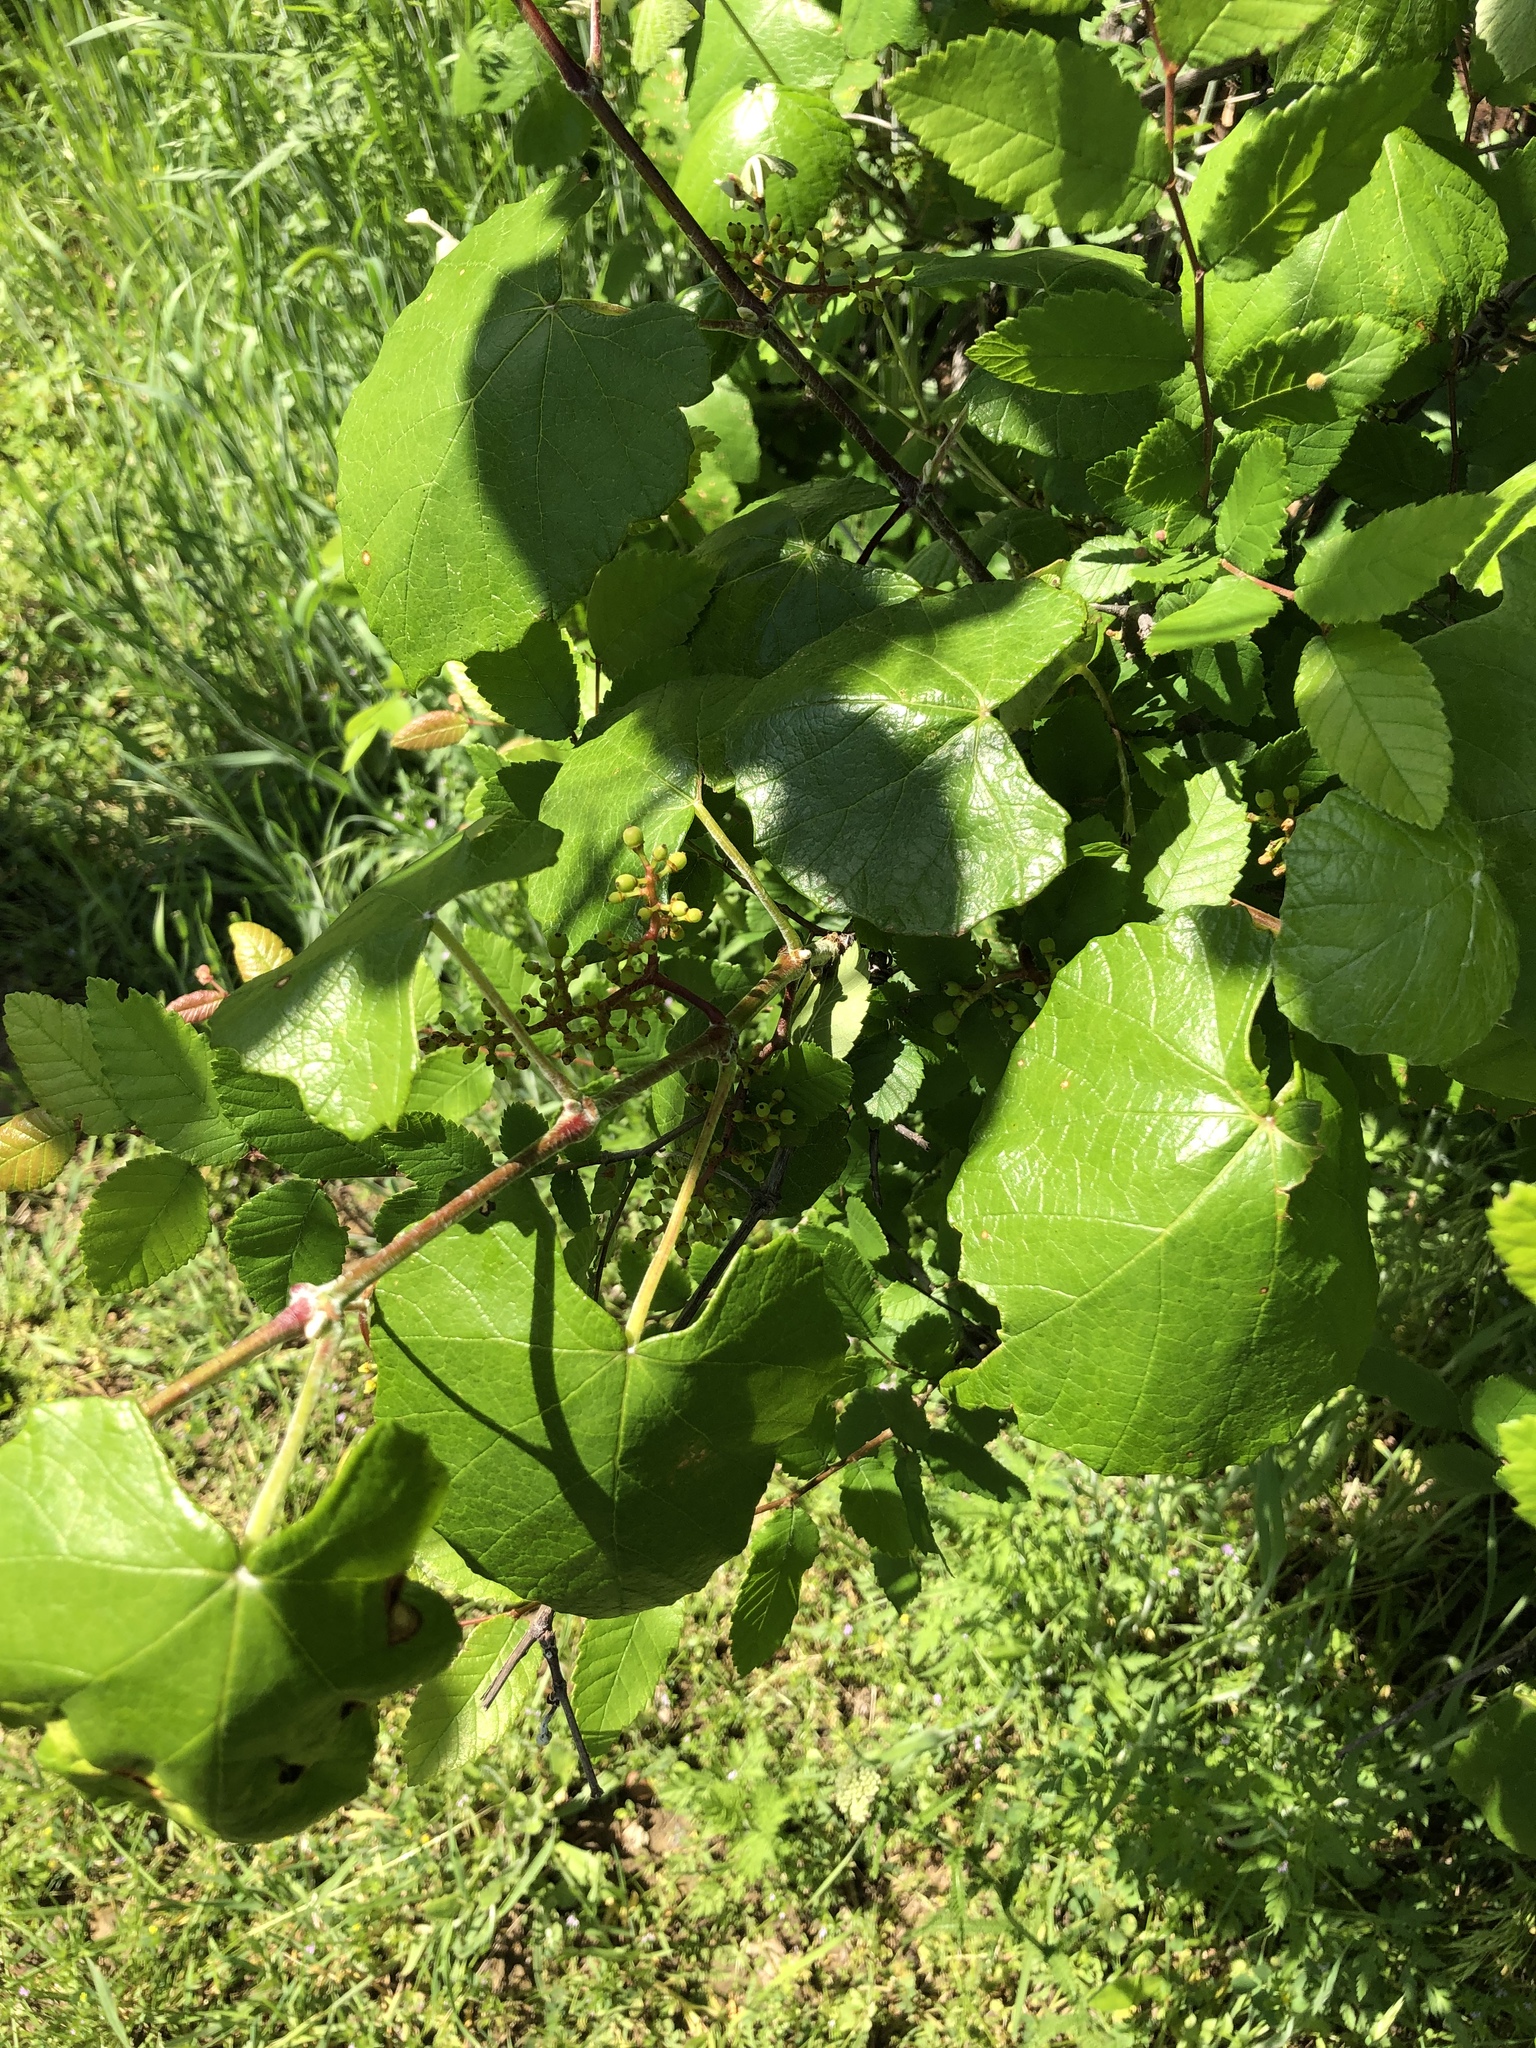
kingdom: Plantae
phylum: Tracheophyta
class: Magnoliopsida
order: Vitales
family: Vitaceae
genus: Vitis
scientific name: Vitis mustangensis
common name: Mustang grape
